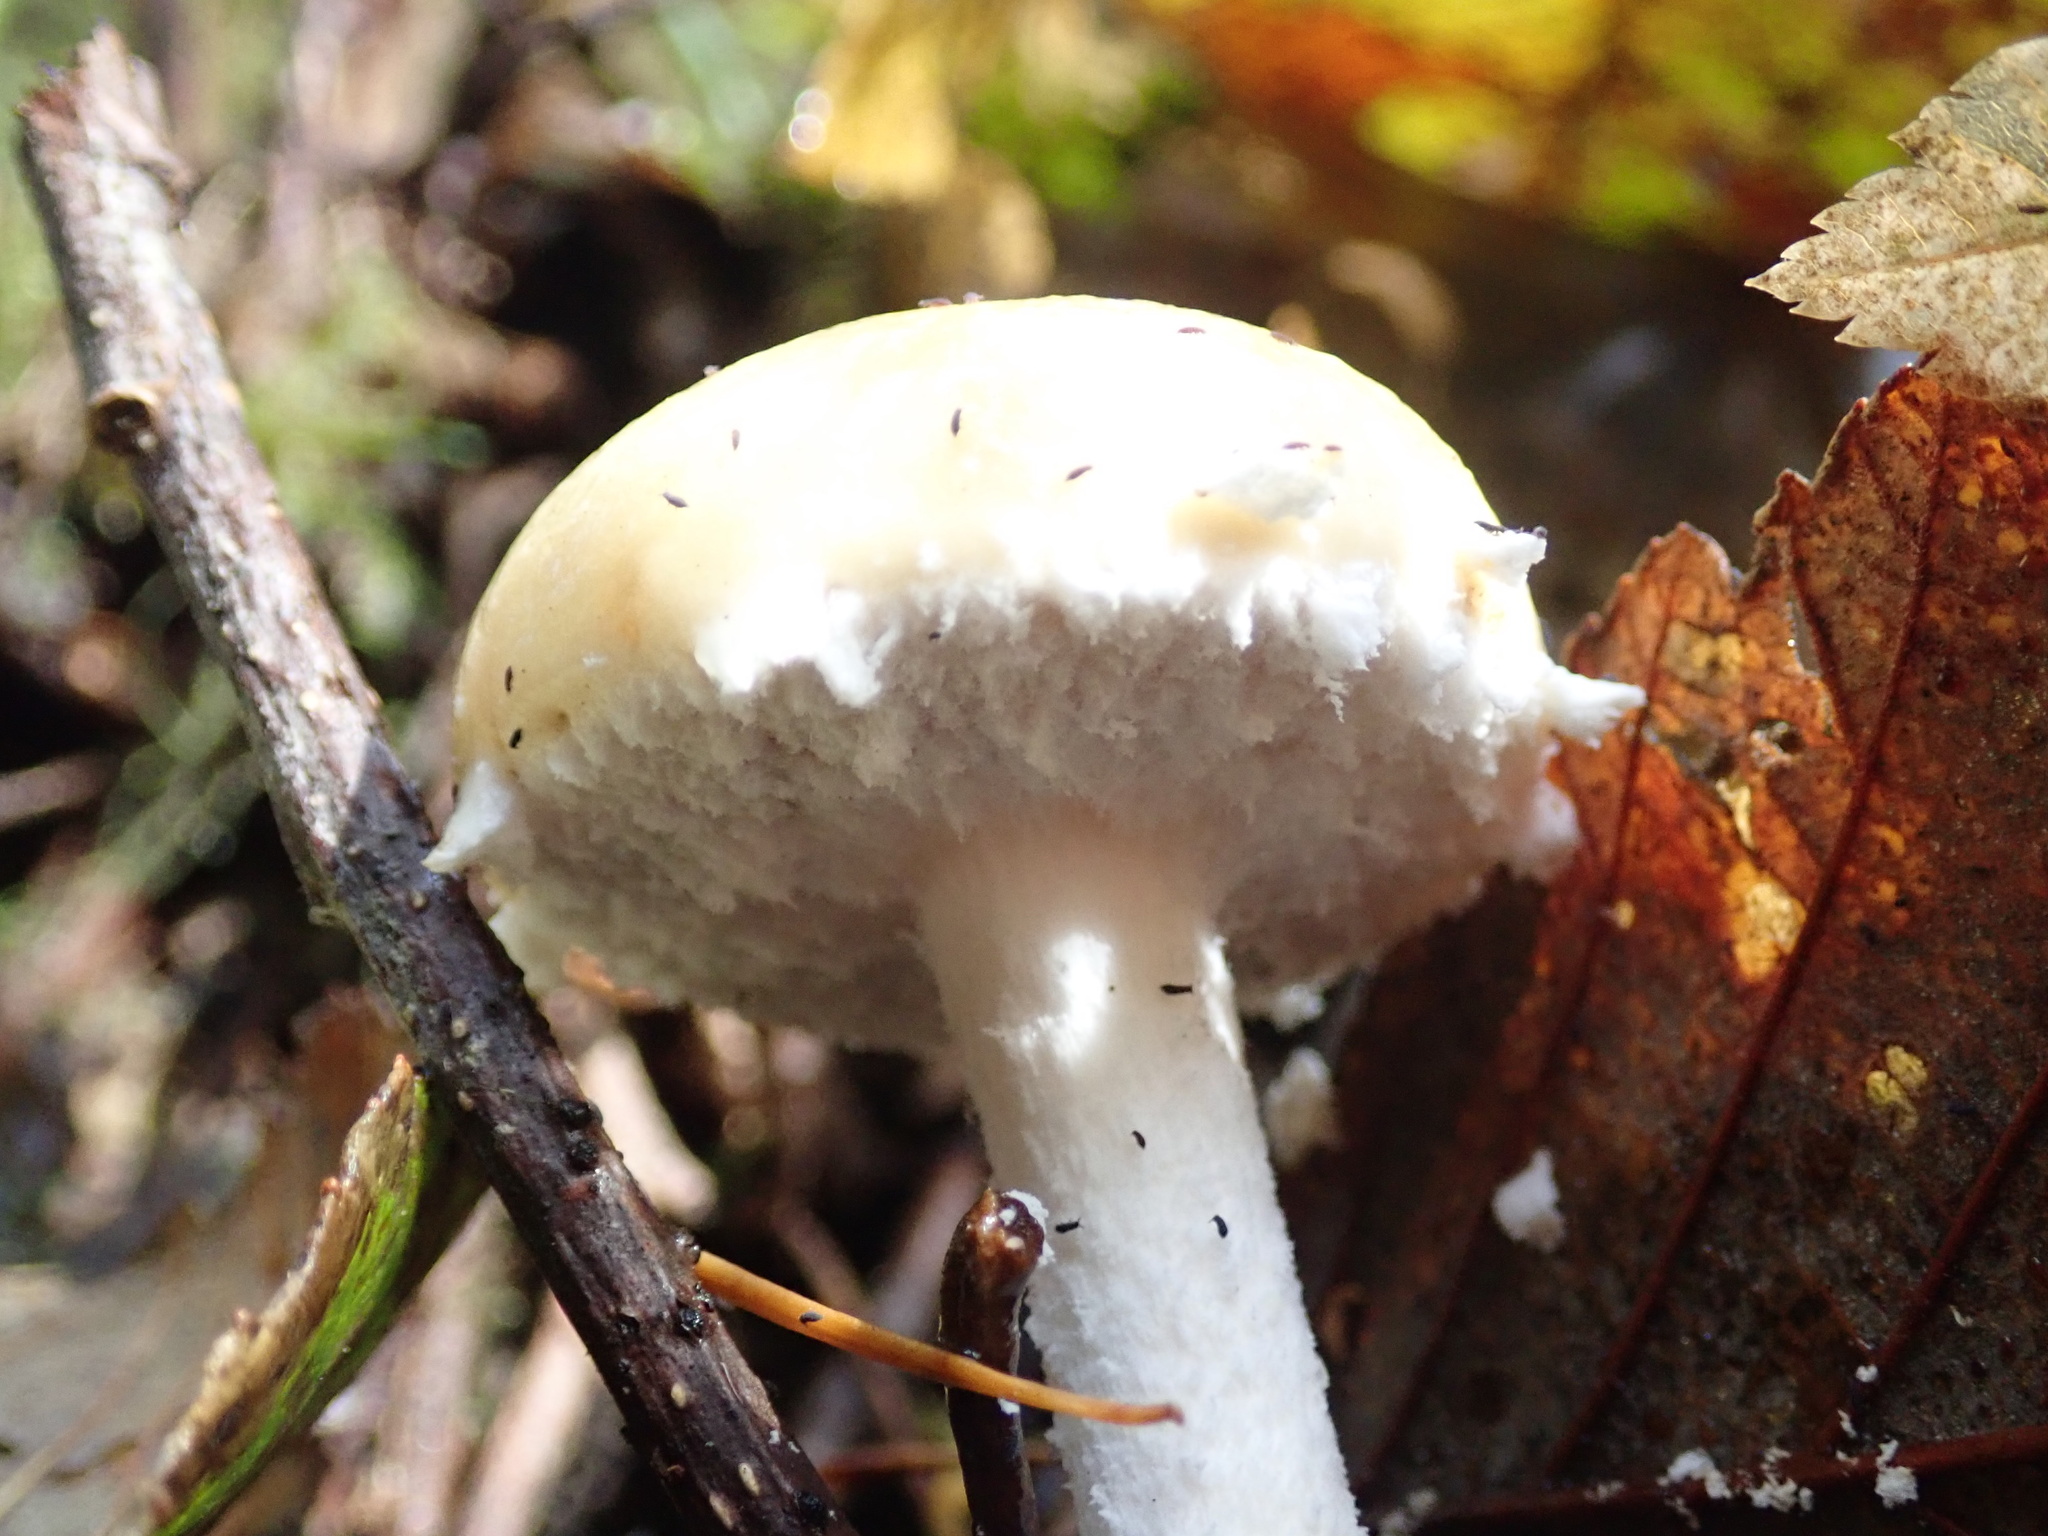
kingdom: Fungi
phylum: Basidiomycota
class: Agaricomycetes
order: Agaricales
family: Strophariaceae
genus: Stropharia
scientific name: Stropharia ambigua
